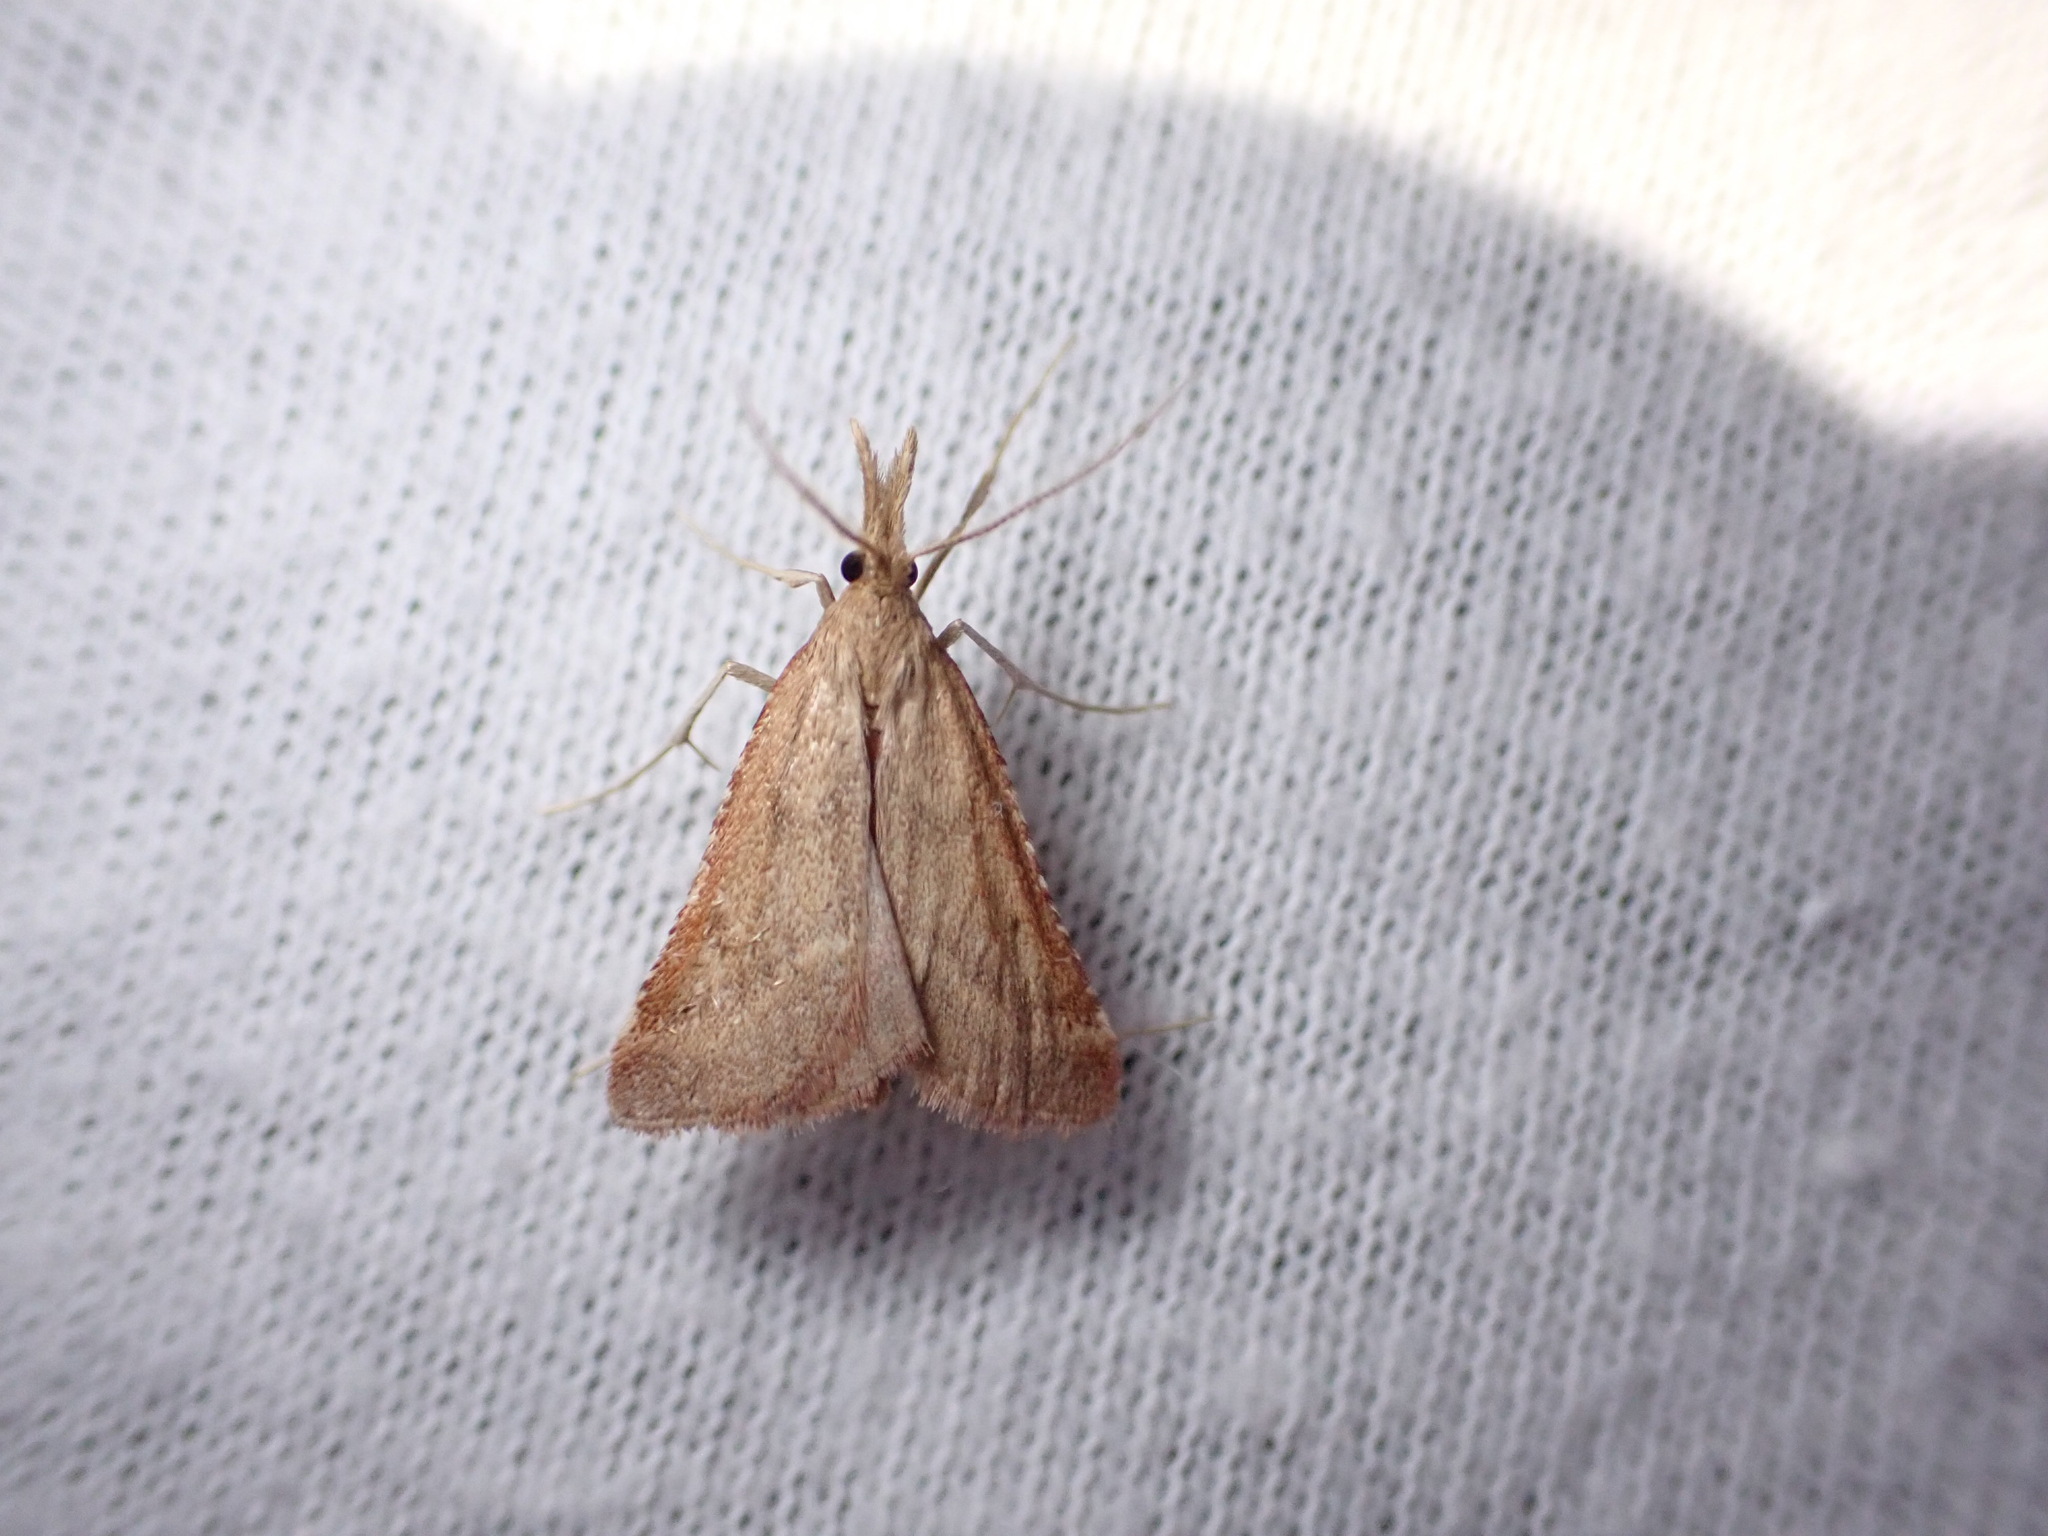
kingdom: Animalia
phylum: Arthropoda
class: Insecta
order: Lepidoptera
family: Pyralidae
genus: Synaphe
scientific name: Synaphe punctalis
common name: Long-legged tabby
